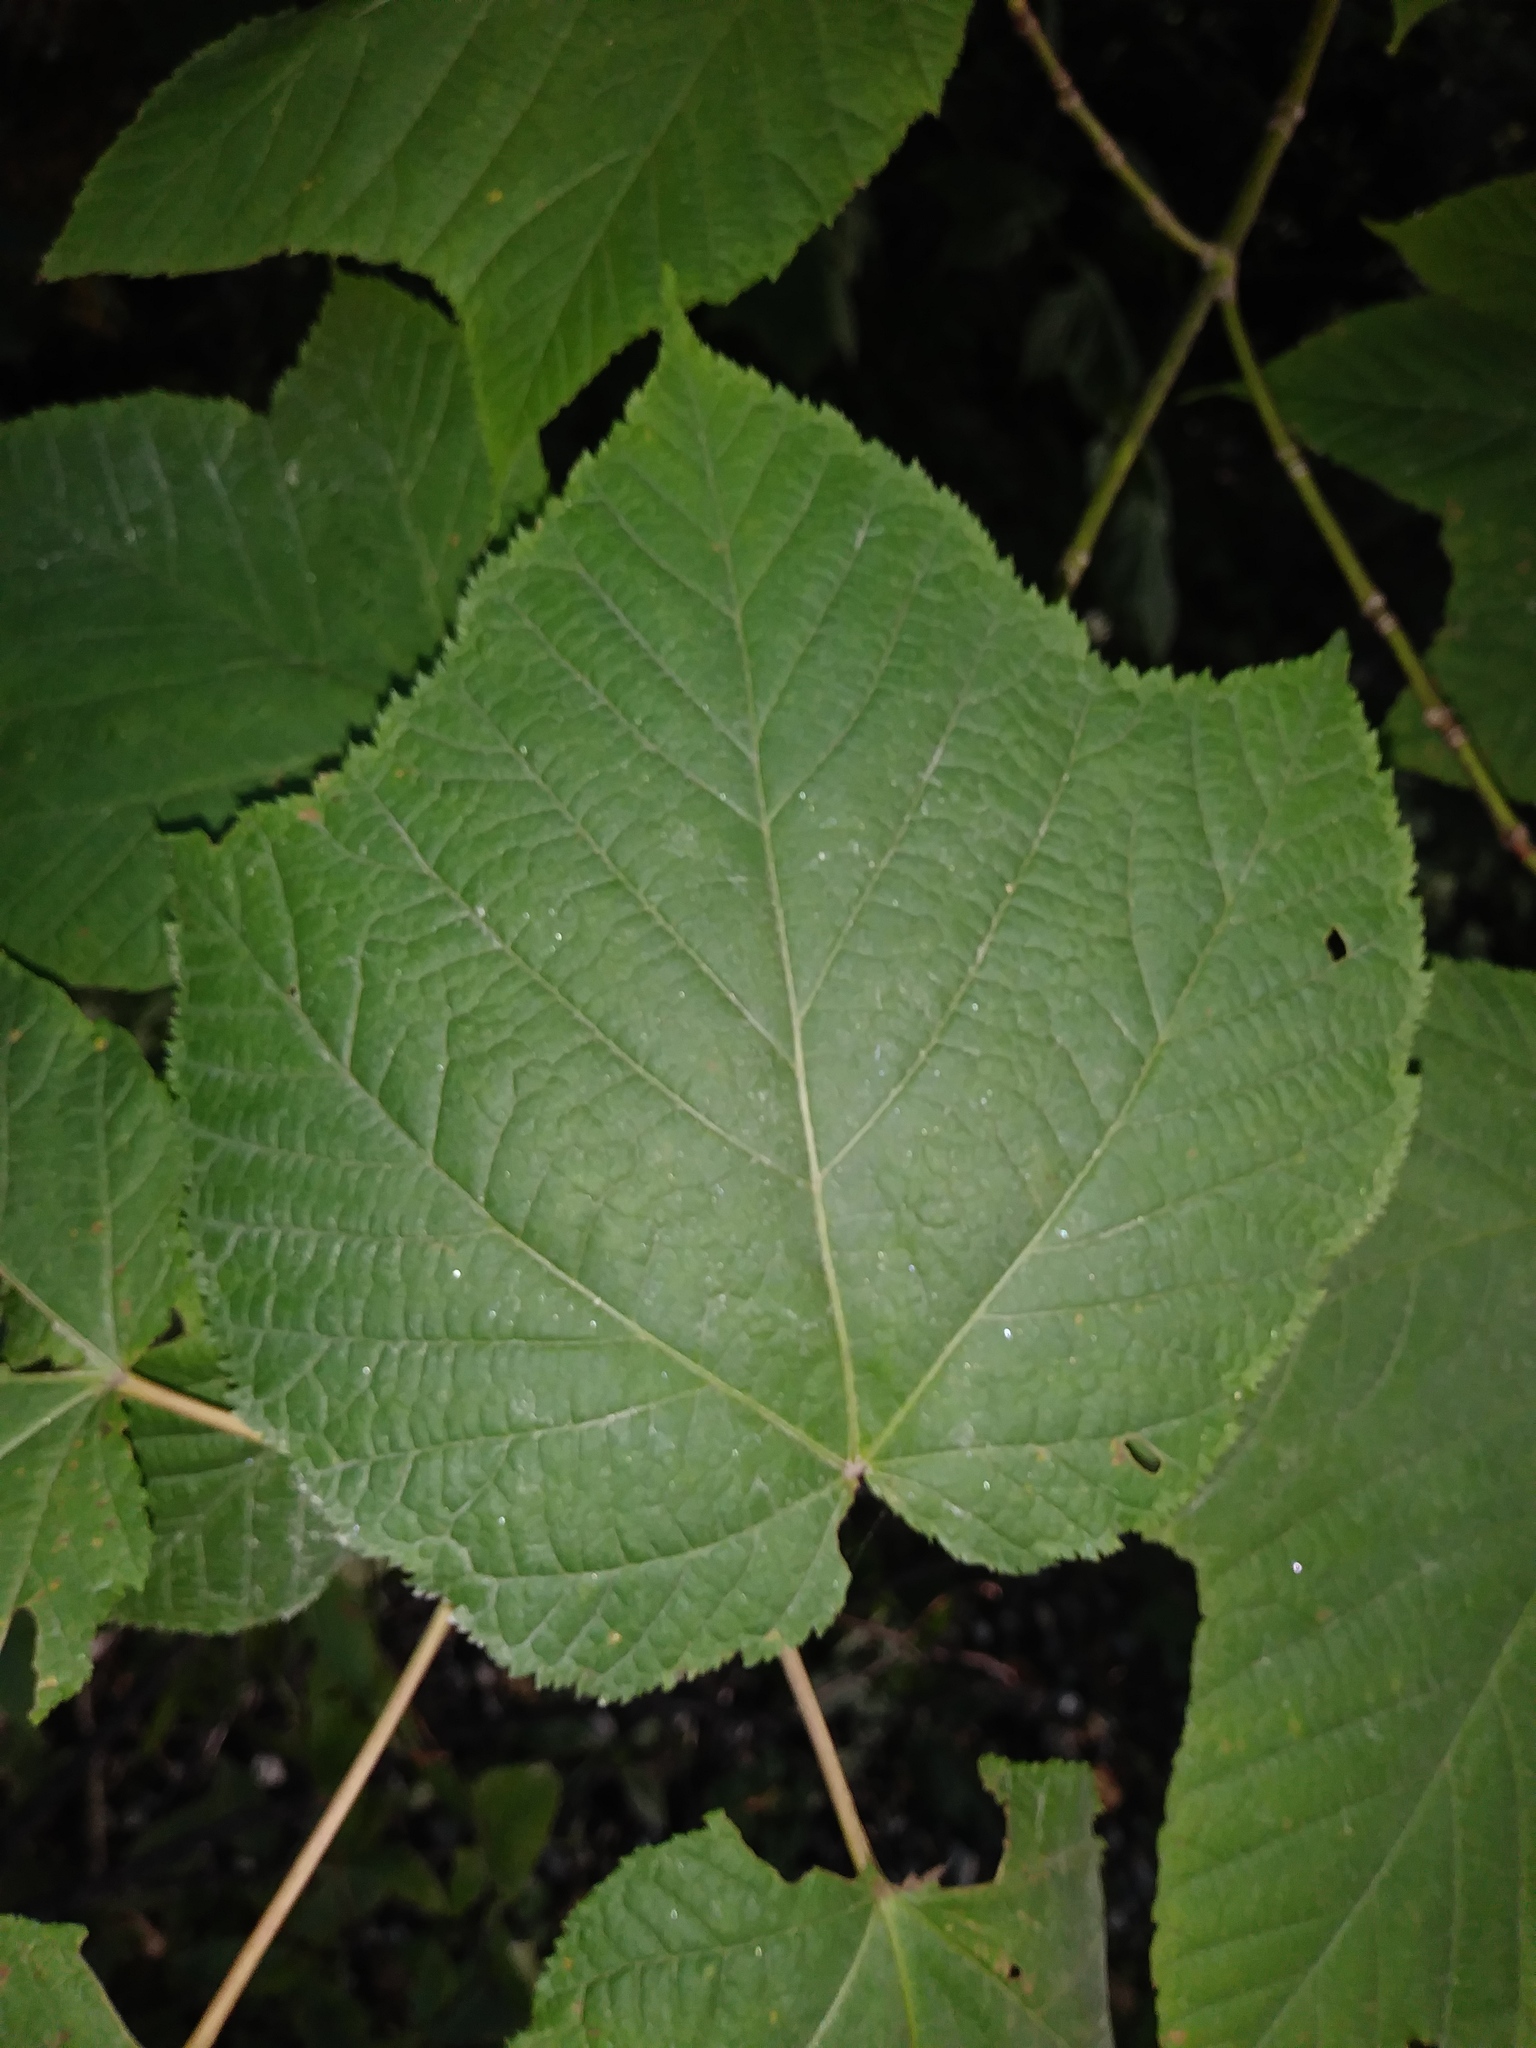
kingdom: Plantae
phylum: Tracheophyta
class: Magnoliopsida
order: Sapindales
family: Sapindaceae
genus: Acer
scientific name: Acer pensylvanicum
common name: Moosewood
